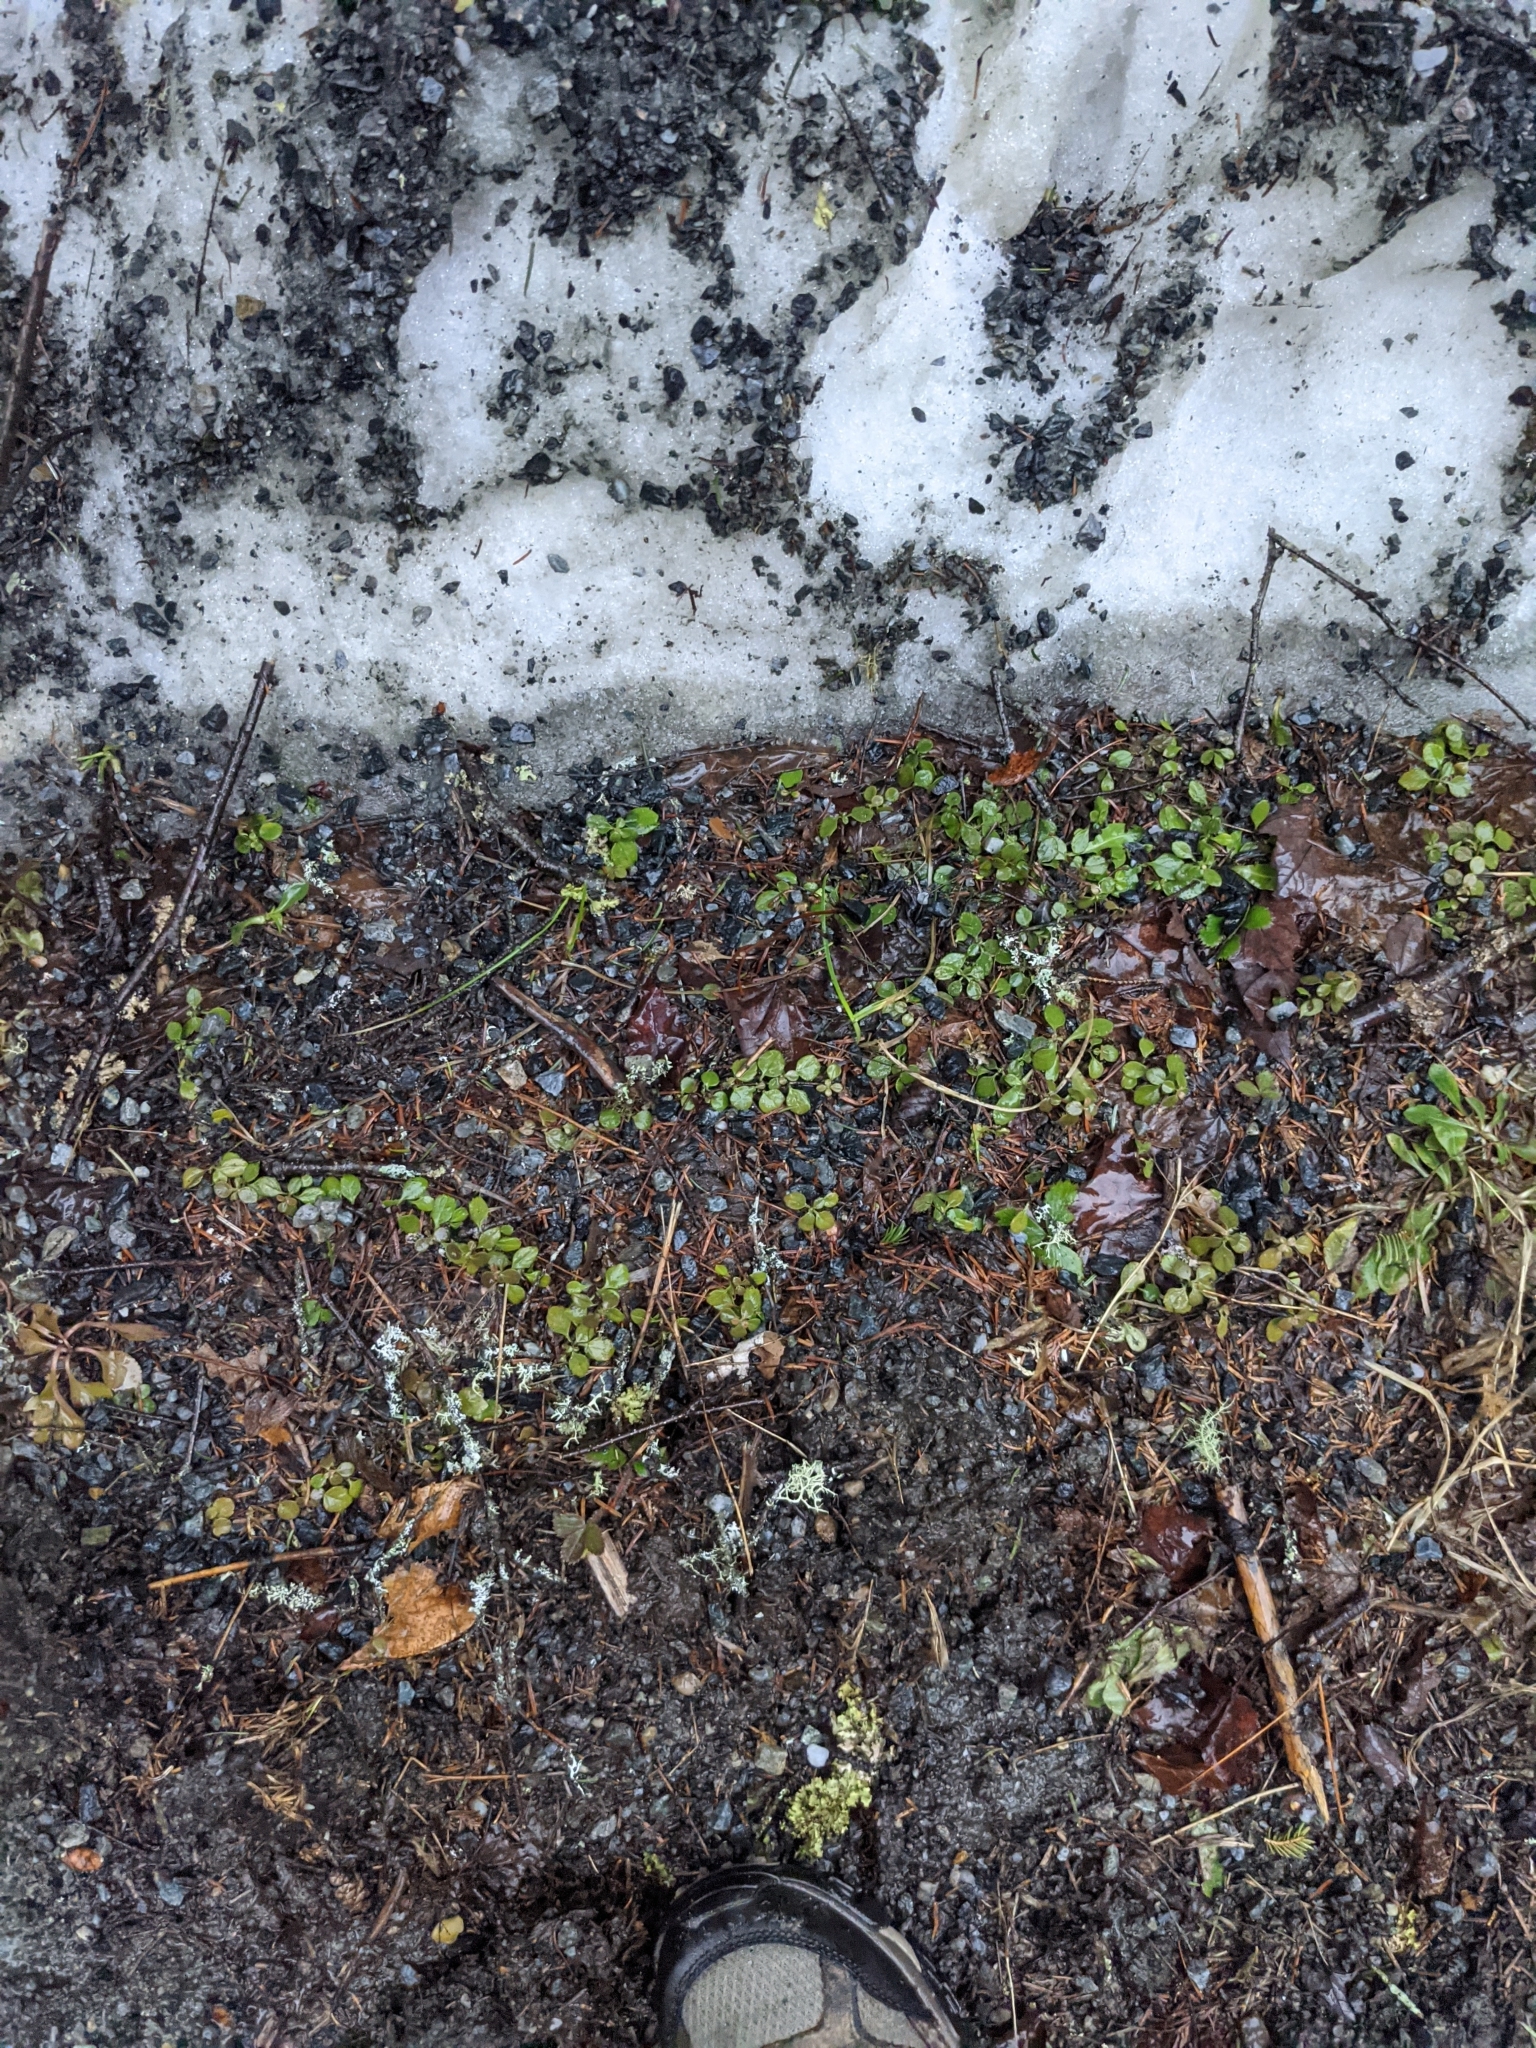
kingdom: Plantae
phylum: Tracheophyta
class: Magnoliopsida
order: Dipsacales
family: Caprifoliaceae
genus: Linnaea
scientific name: Linnaea borealis
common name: Twinflower
